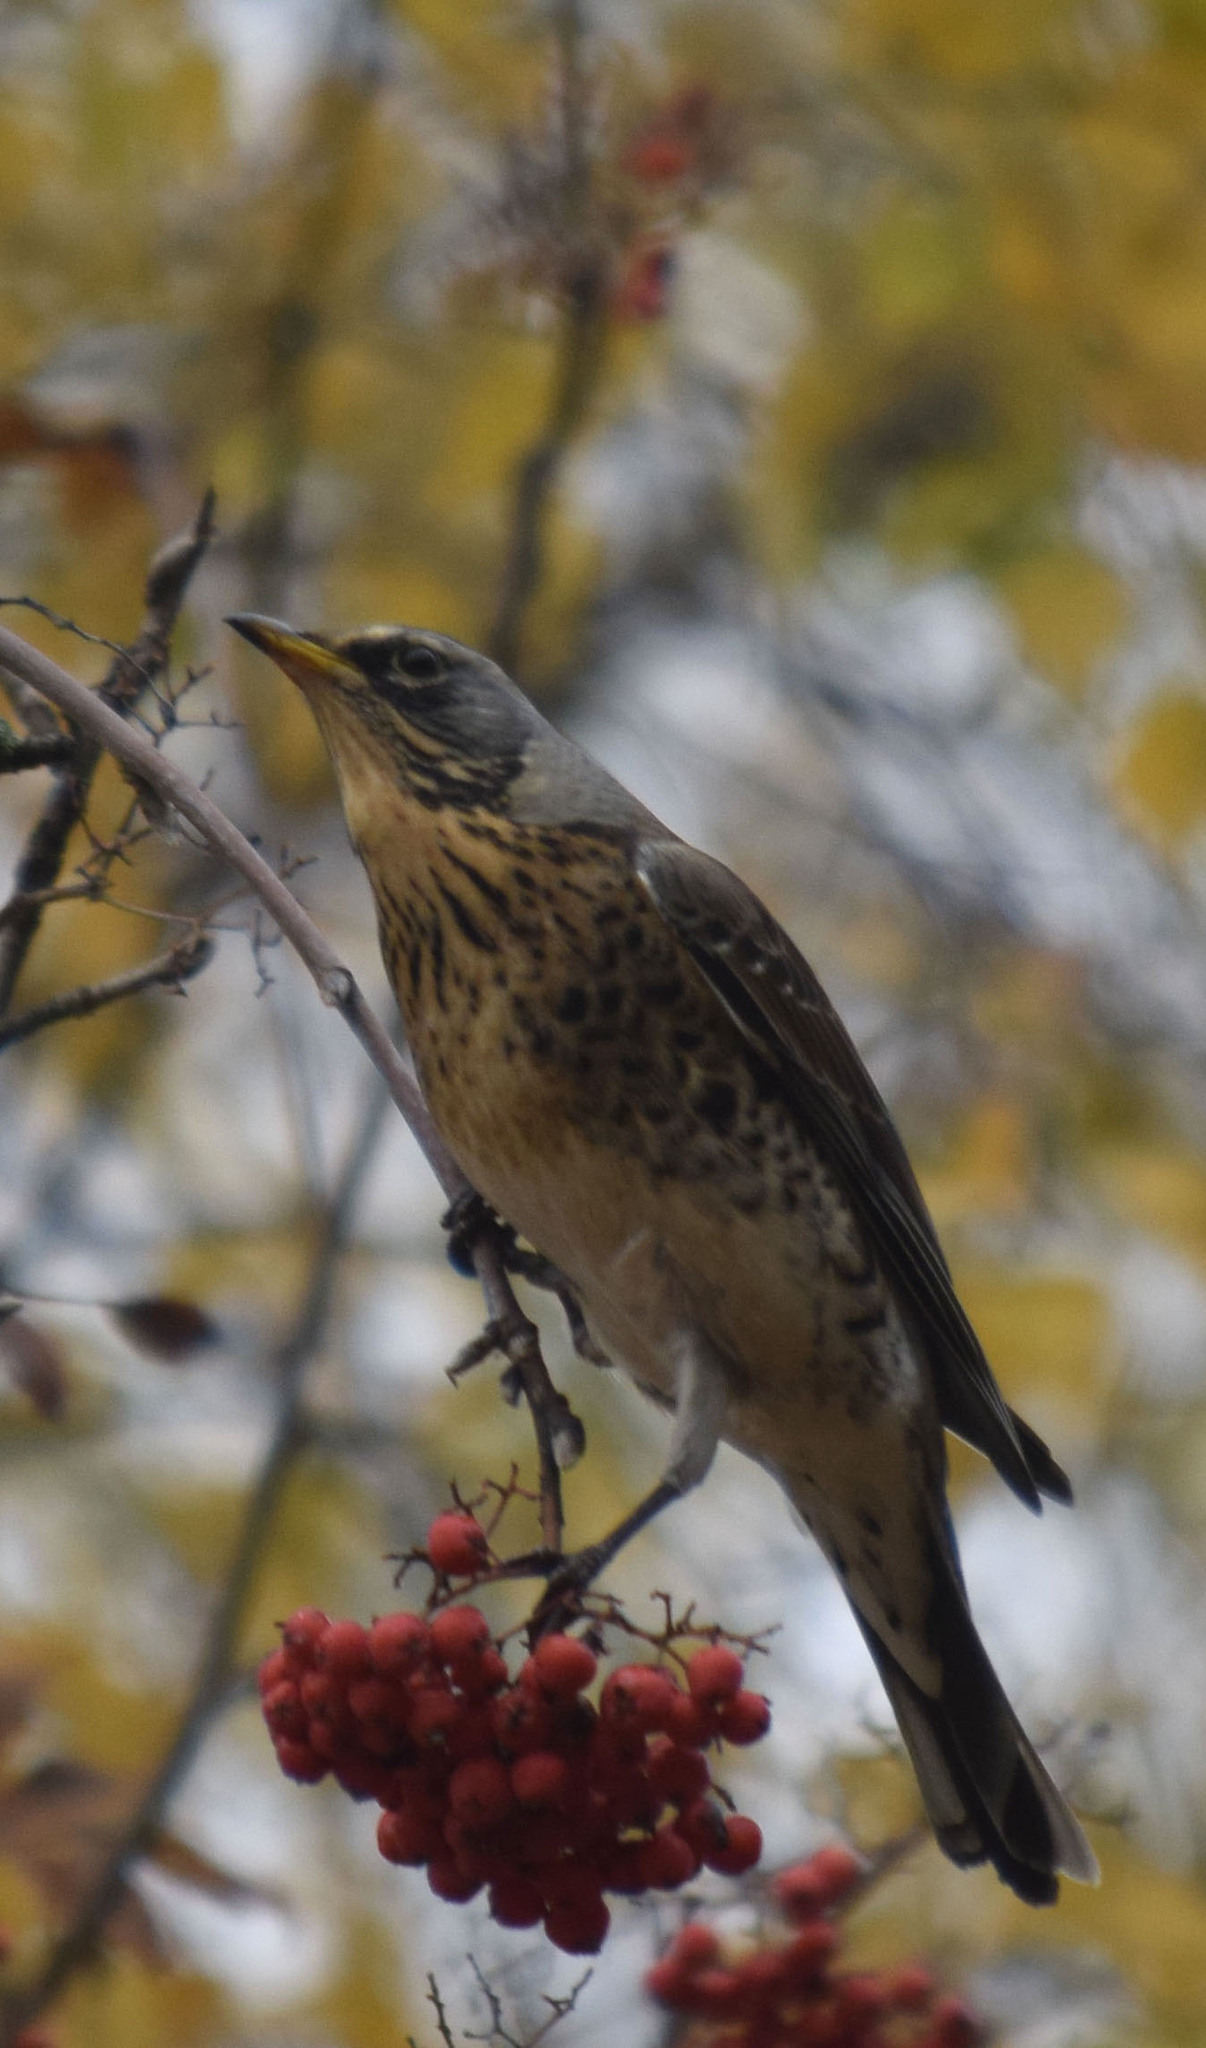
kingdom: Animalia
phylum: Chordata
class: Aves
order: Passeriformes
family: Turdidae
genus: Turdus
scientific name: Turdus pilaris
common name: Fieldfare
